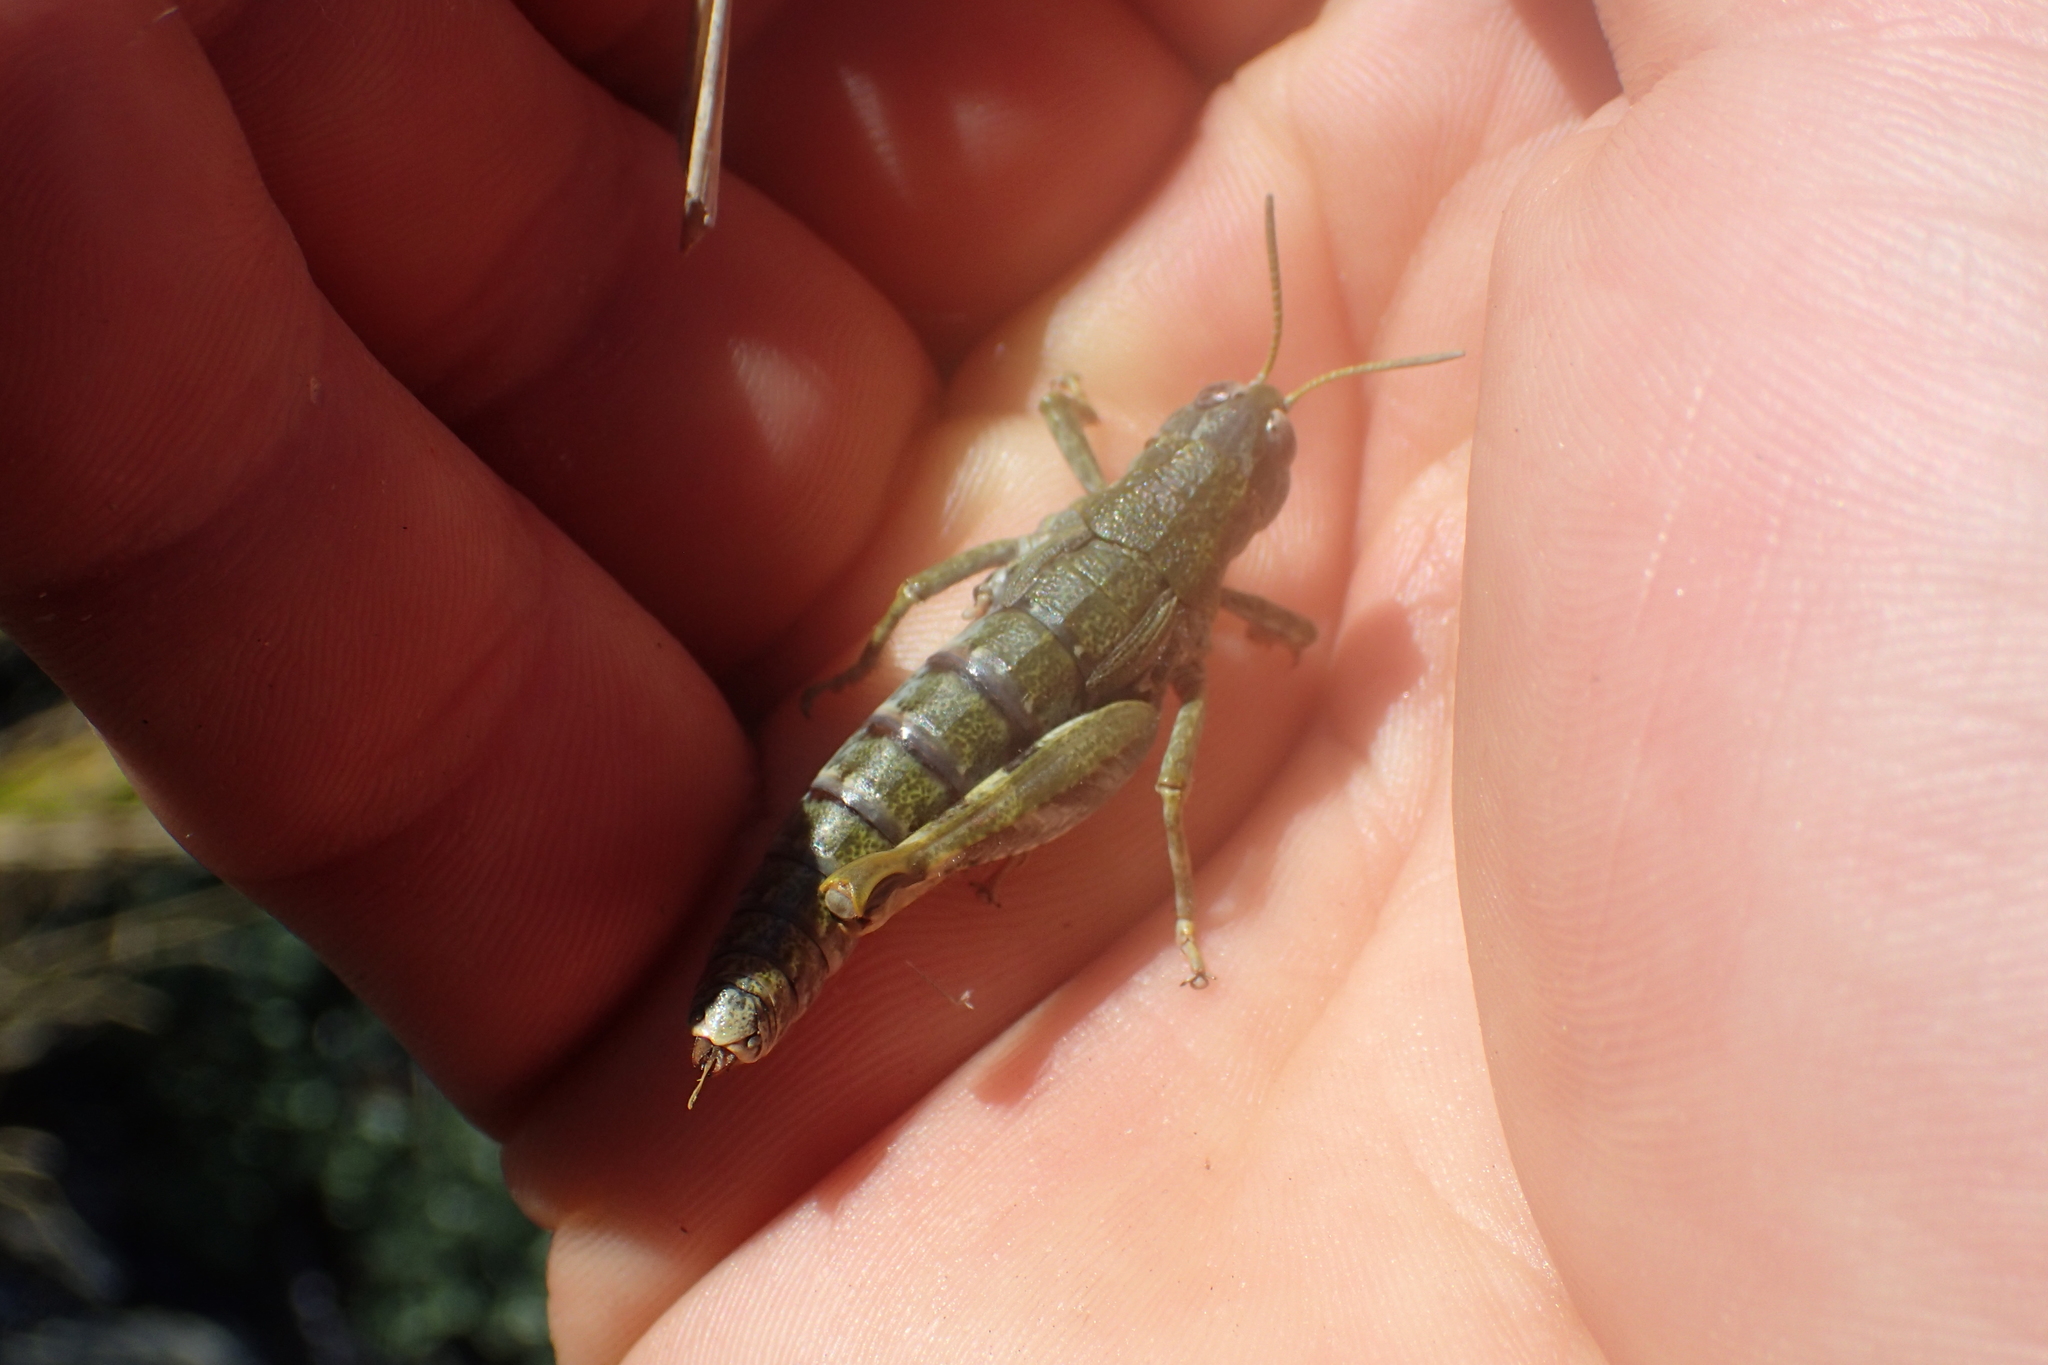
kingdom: Animalia
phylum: Arthropoda
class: Insecta
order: Orthoptera
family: Acrididae
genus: Sigaus
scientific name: Sigaus
